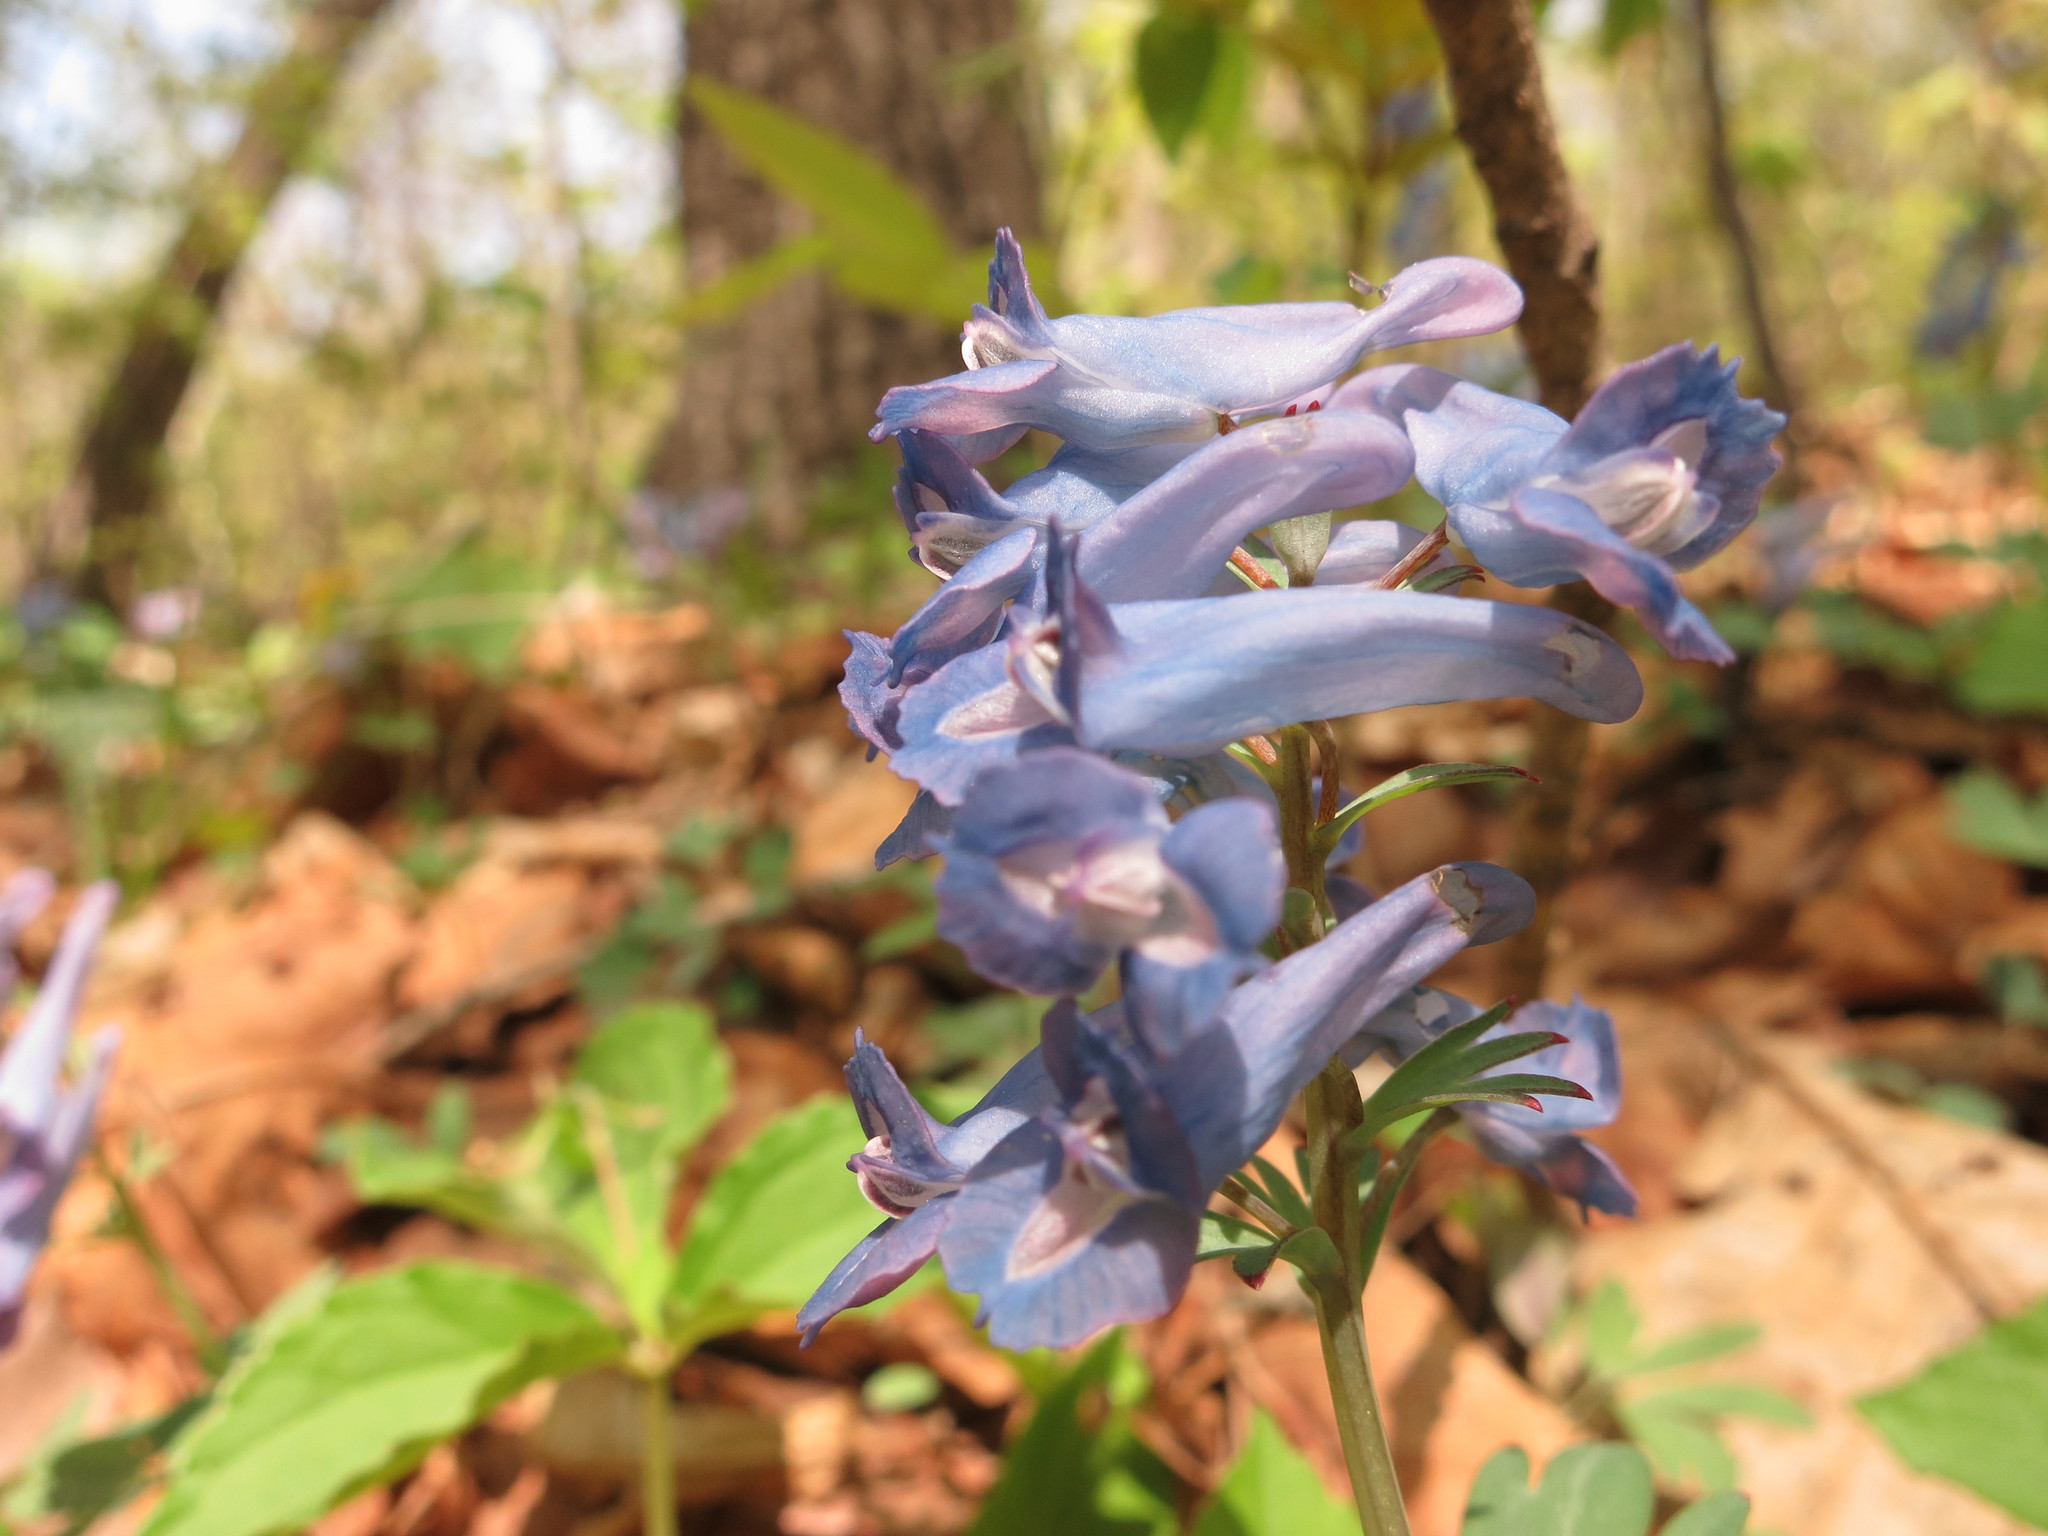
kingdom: Plantae
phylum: Tracheophyta
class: Magnoliopsida
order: Ranunculales
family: Papaveraceae
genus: Corydalis
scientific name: Corydalis turtschaninovii
